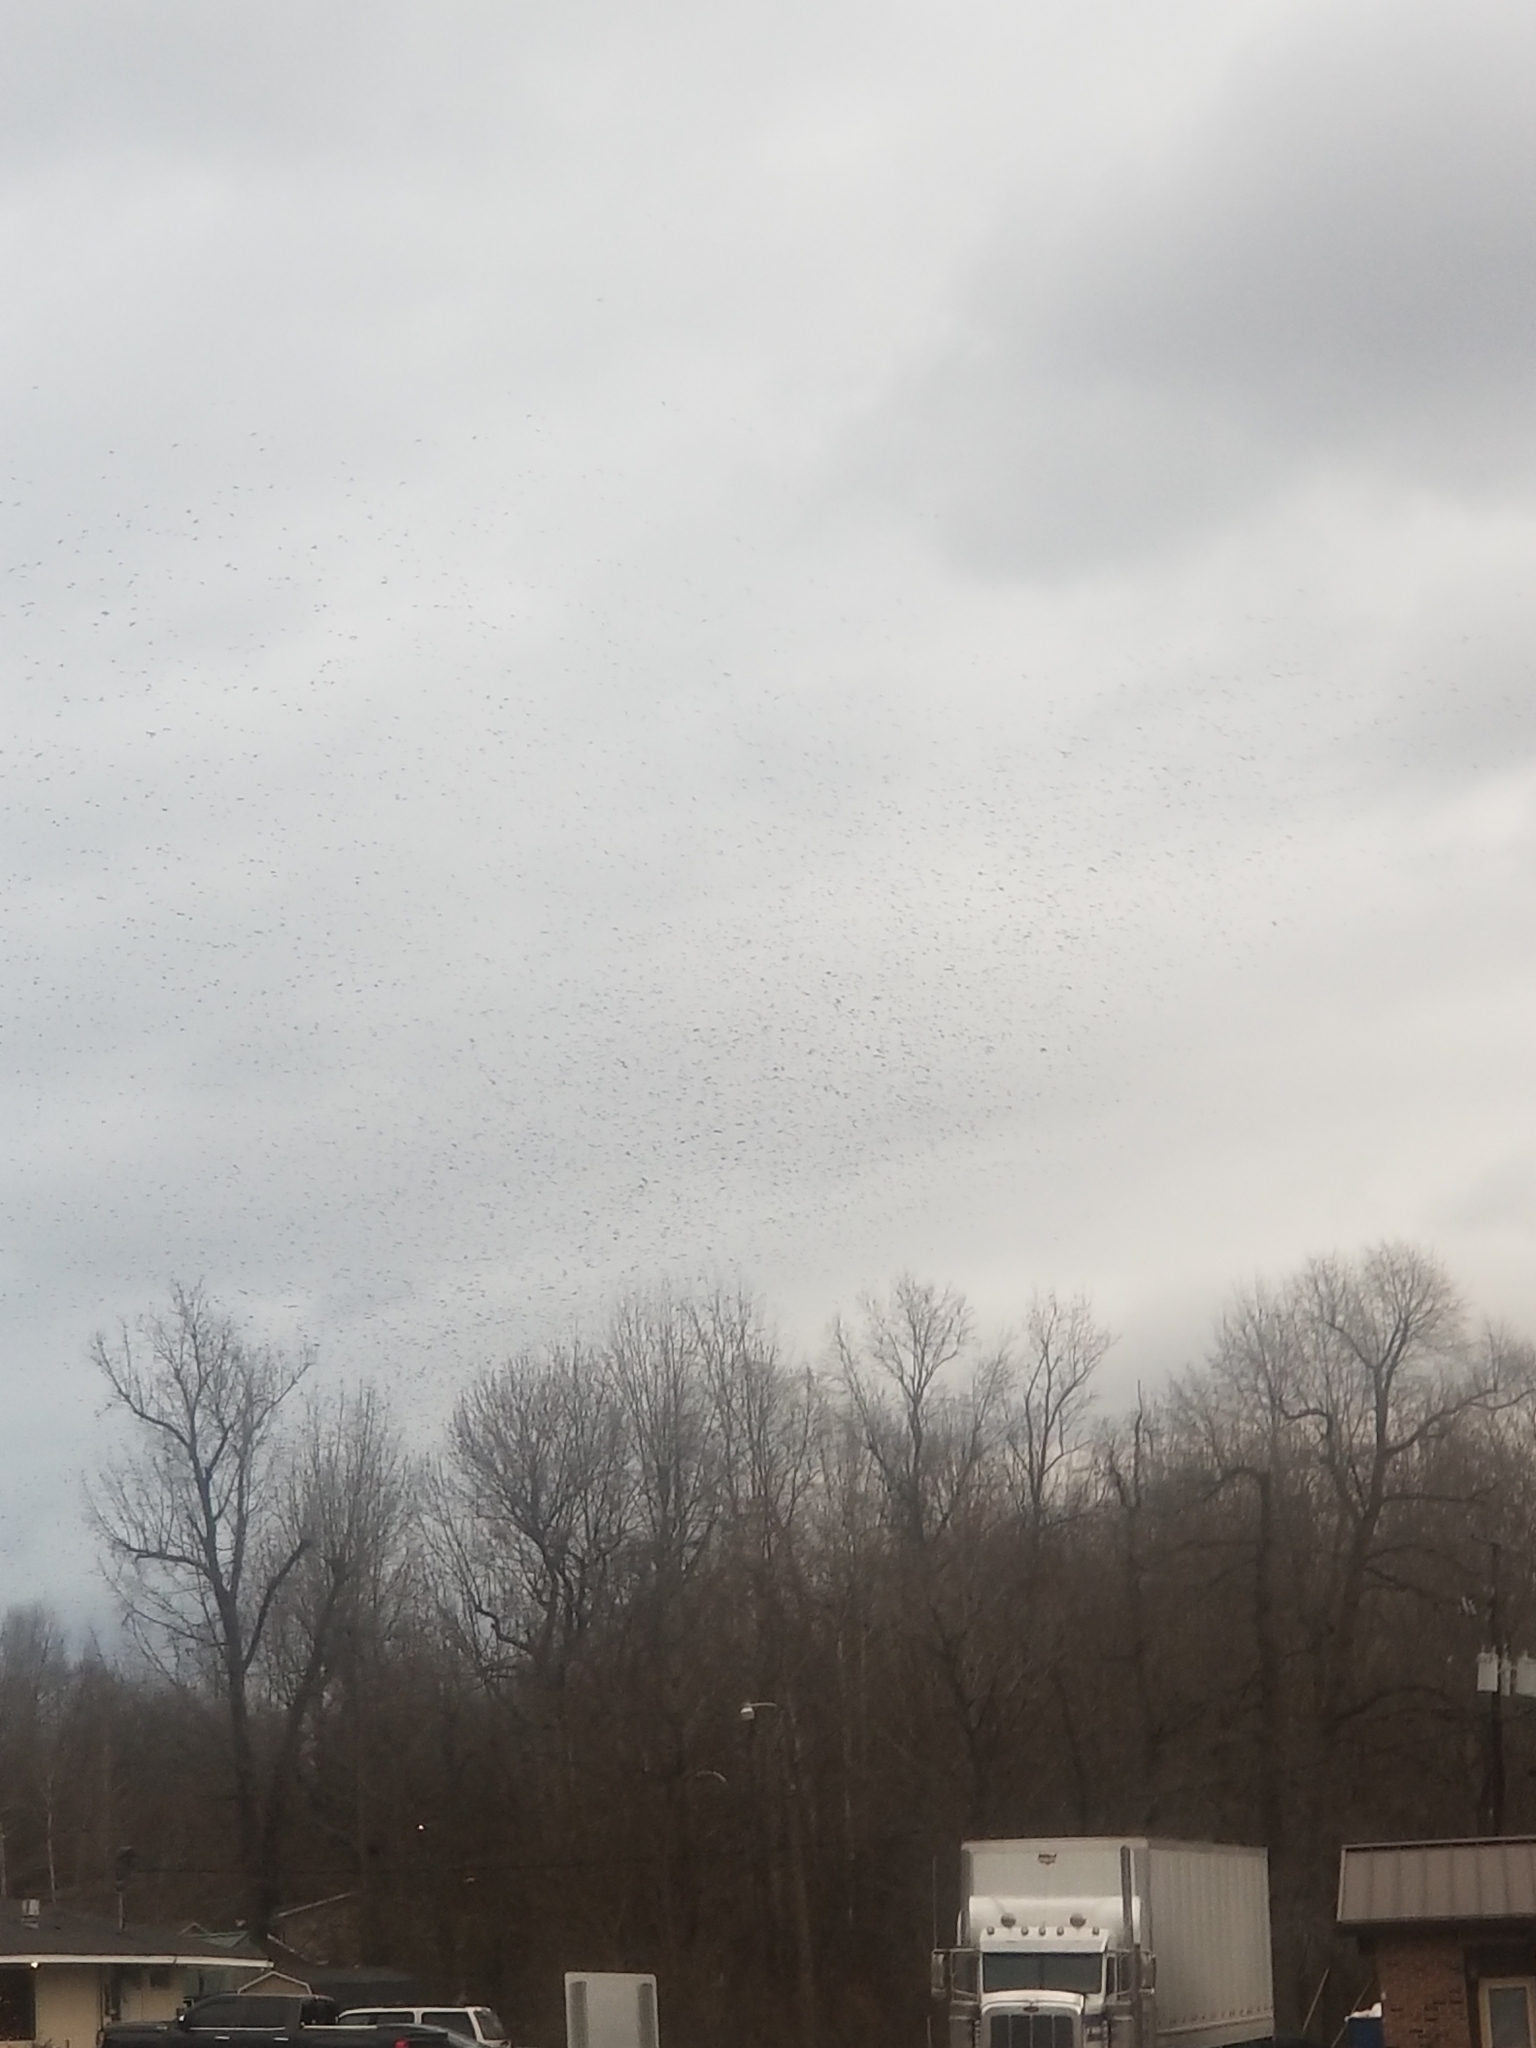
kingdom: Animalia
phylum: Chordata
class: Aves
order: Passeriformes
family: Sturnidae
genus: Sturnus
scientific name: Sturnus vulgaris
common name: Common starling
